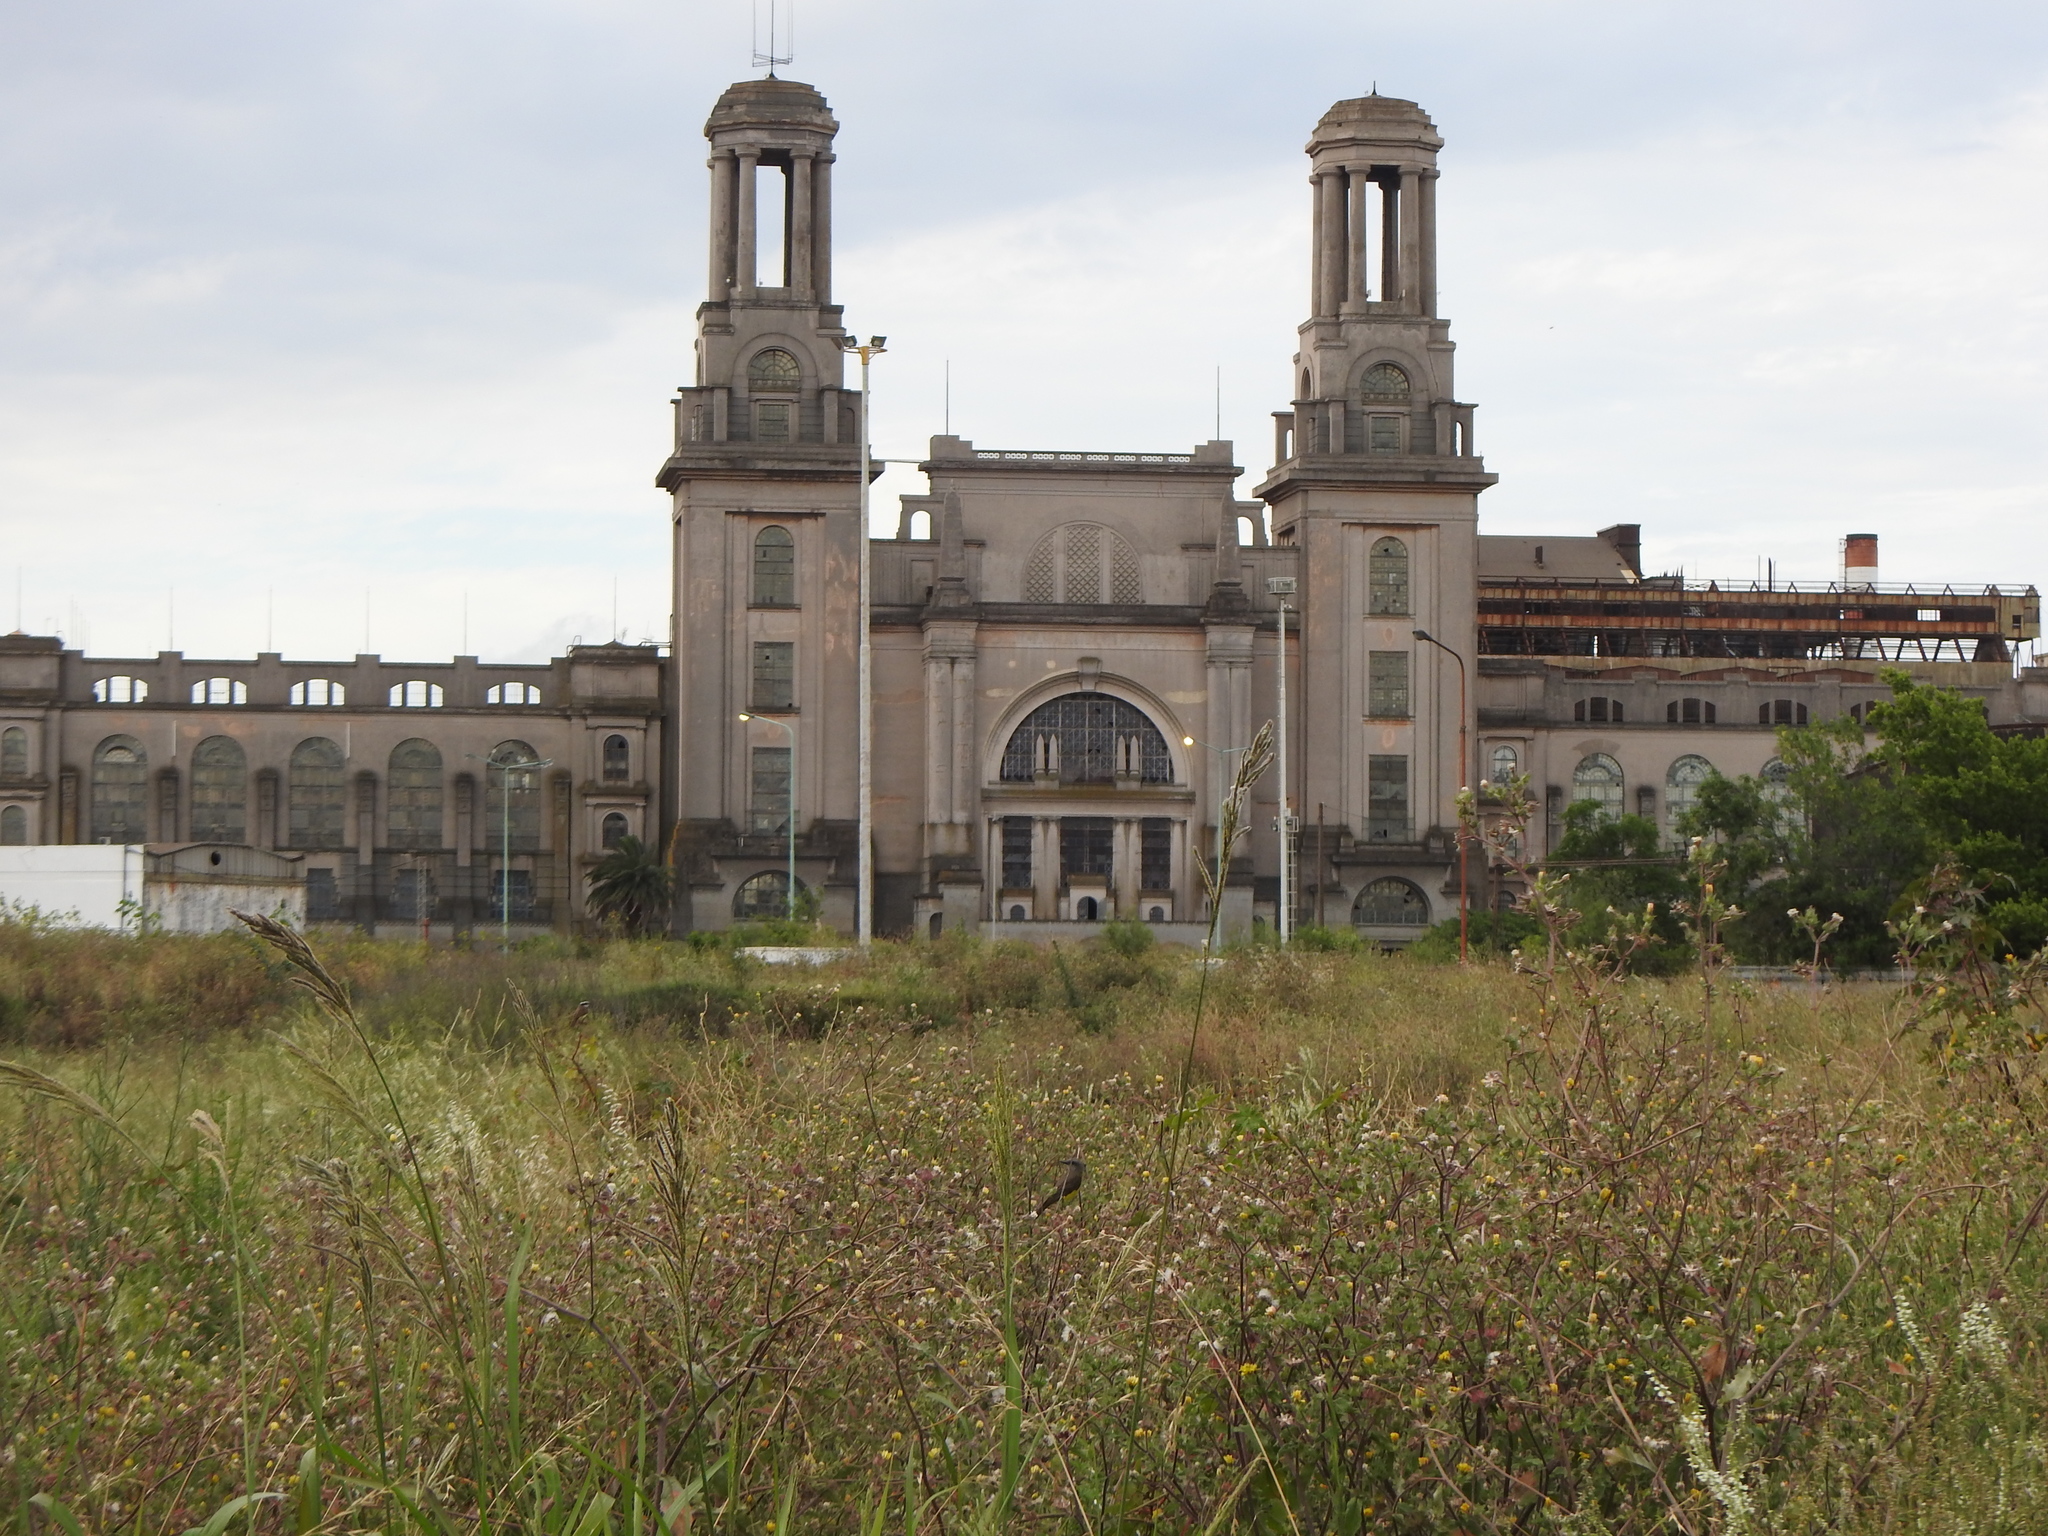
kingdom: Animalia
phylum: Chordata
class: Aves
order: Passeriformes
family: Tyrannidae
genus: Tyrannus
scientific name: Tyrannus melancholicus
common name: Tropical kingbird
